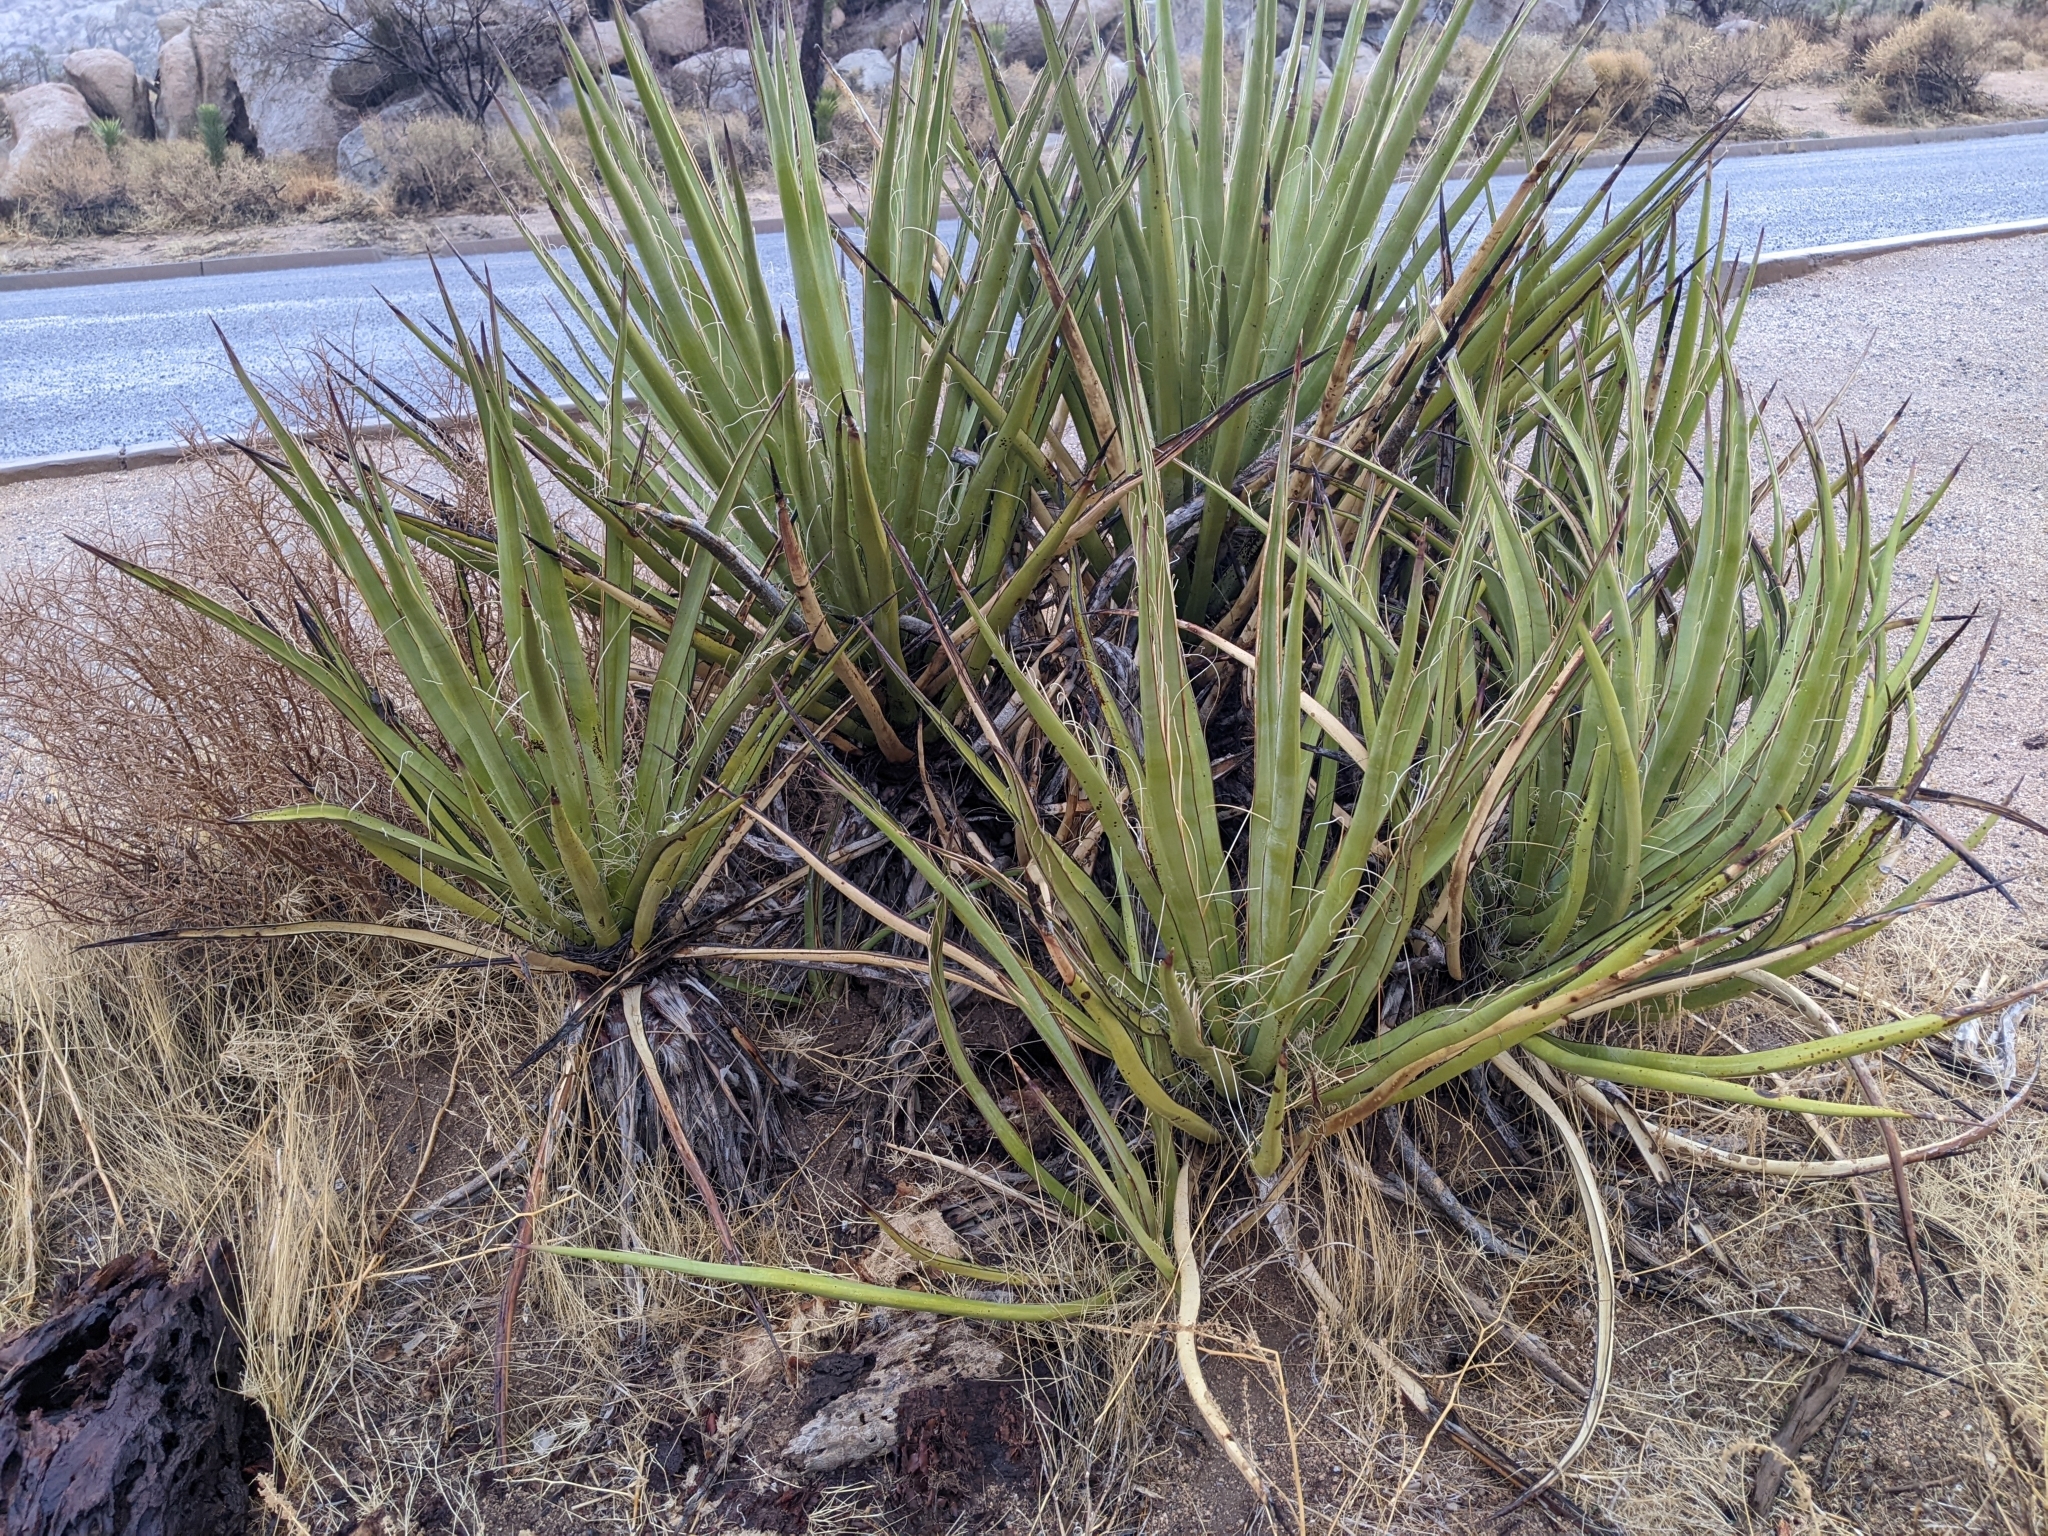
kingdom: Plantae
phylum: Tracheophyta
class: Liliopsida
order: Asparagales
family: Asparagaceae
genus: Yucca
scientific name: Yucca schidigera
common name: Mojave yucca
